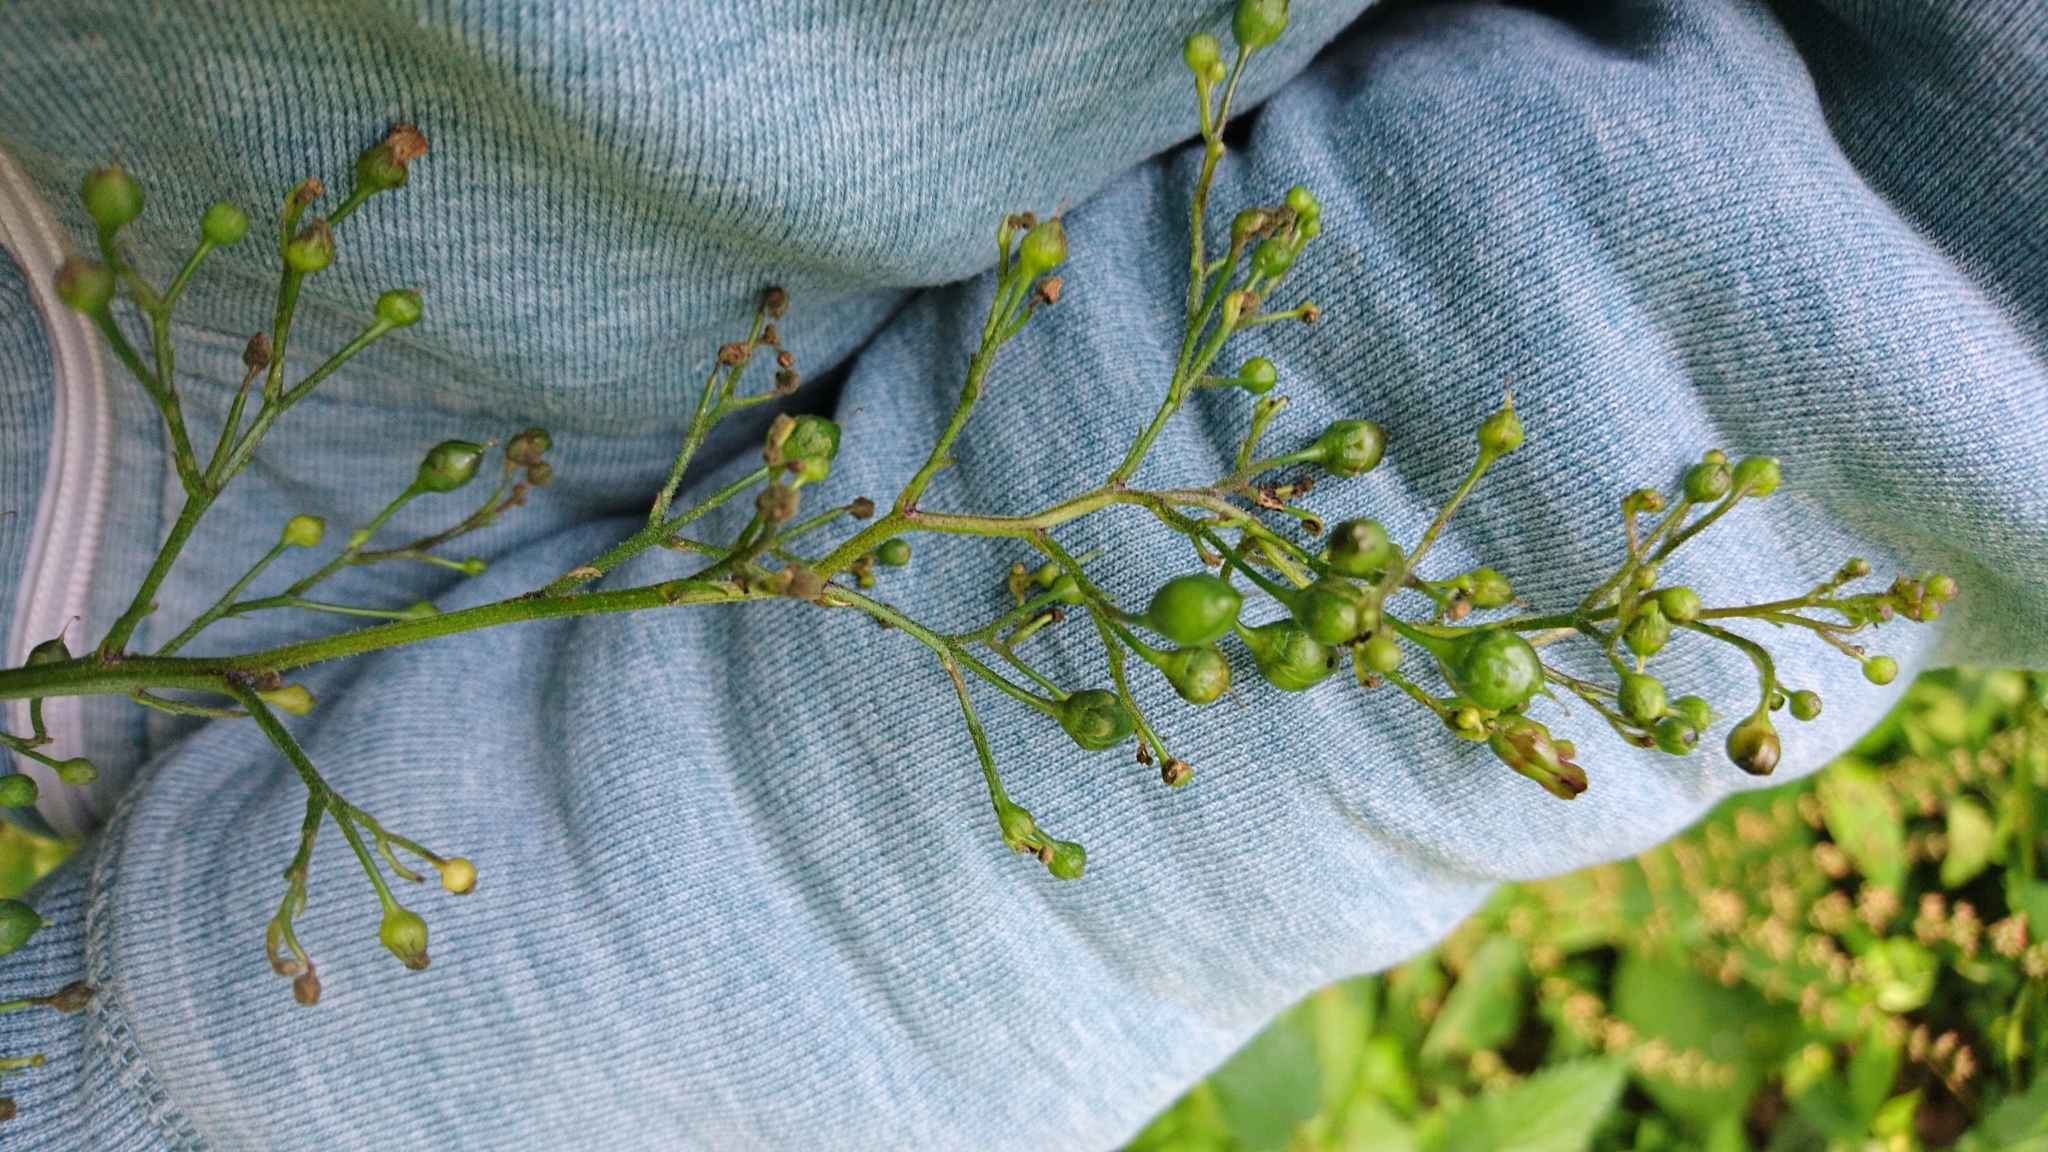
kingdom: Plantae
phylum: Tracheophyta
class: Magnoliopsida
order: Lamiales
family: Scrophulariaceae
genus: Scrophularia
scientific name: Scrophularia nodosa
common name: Common figwort
